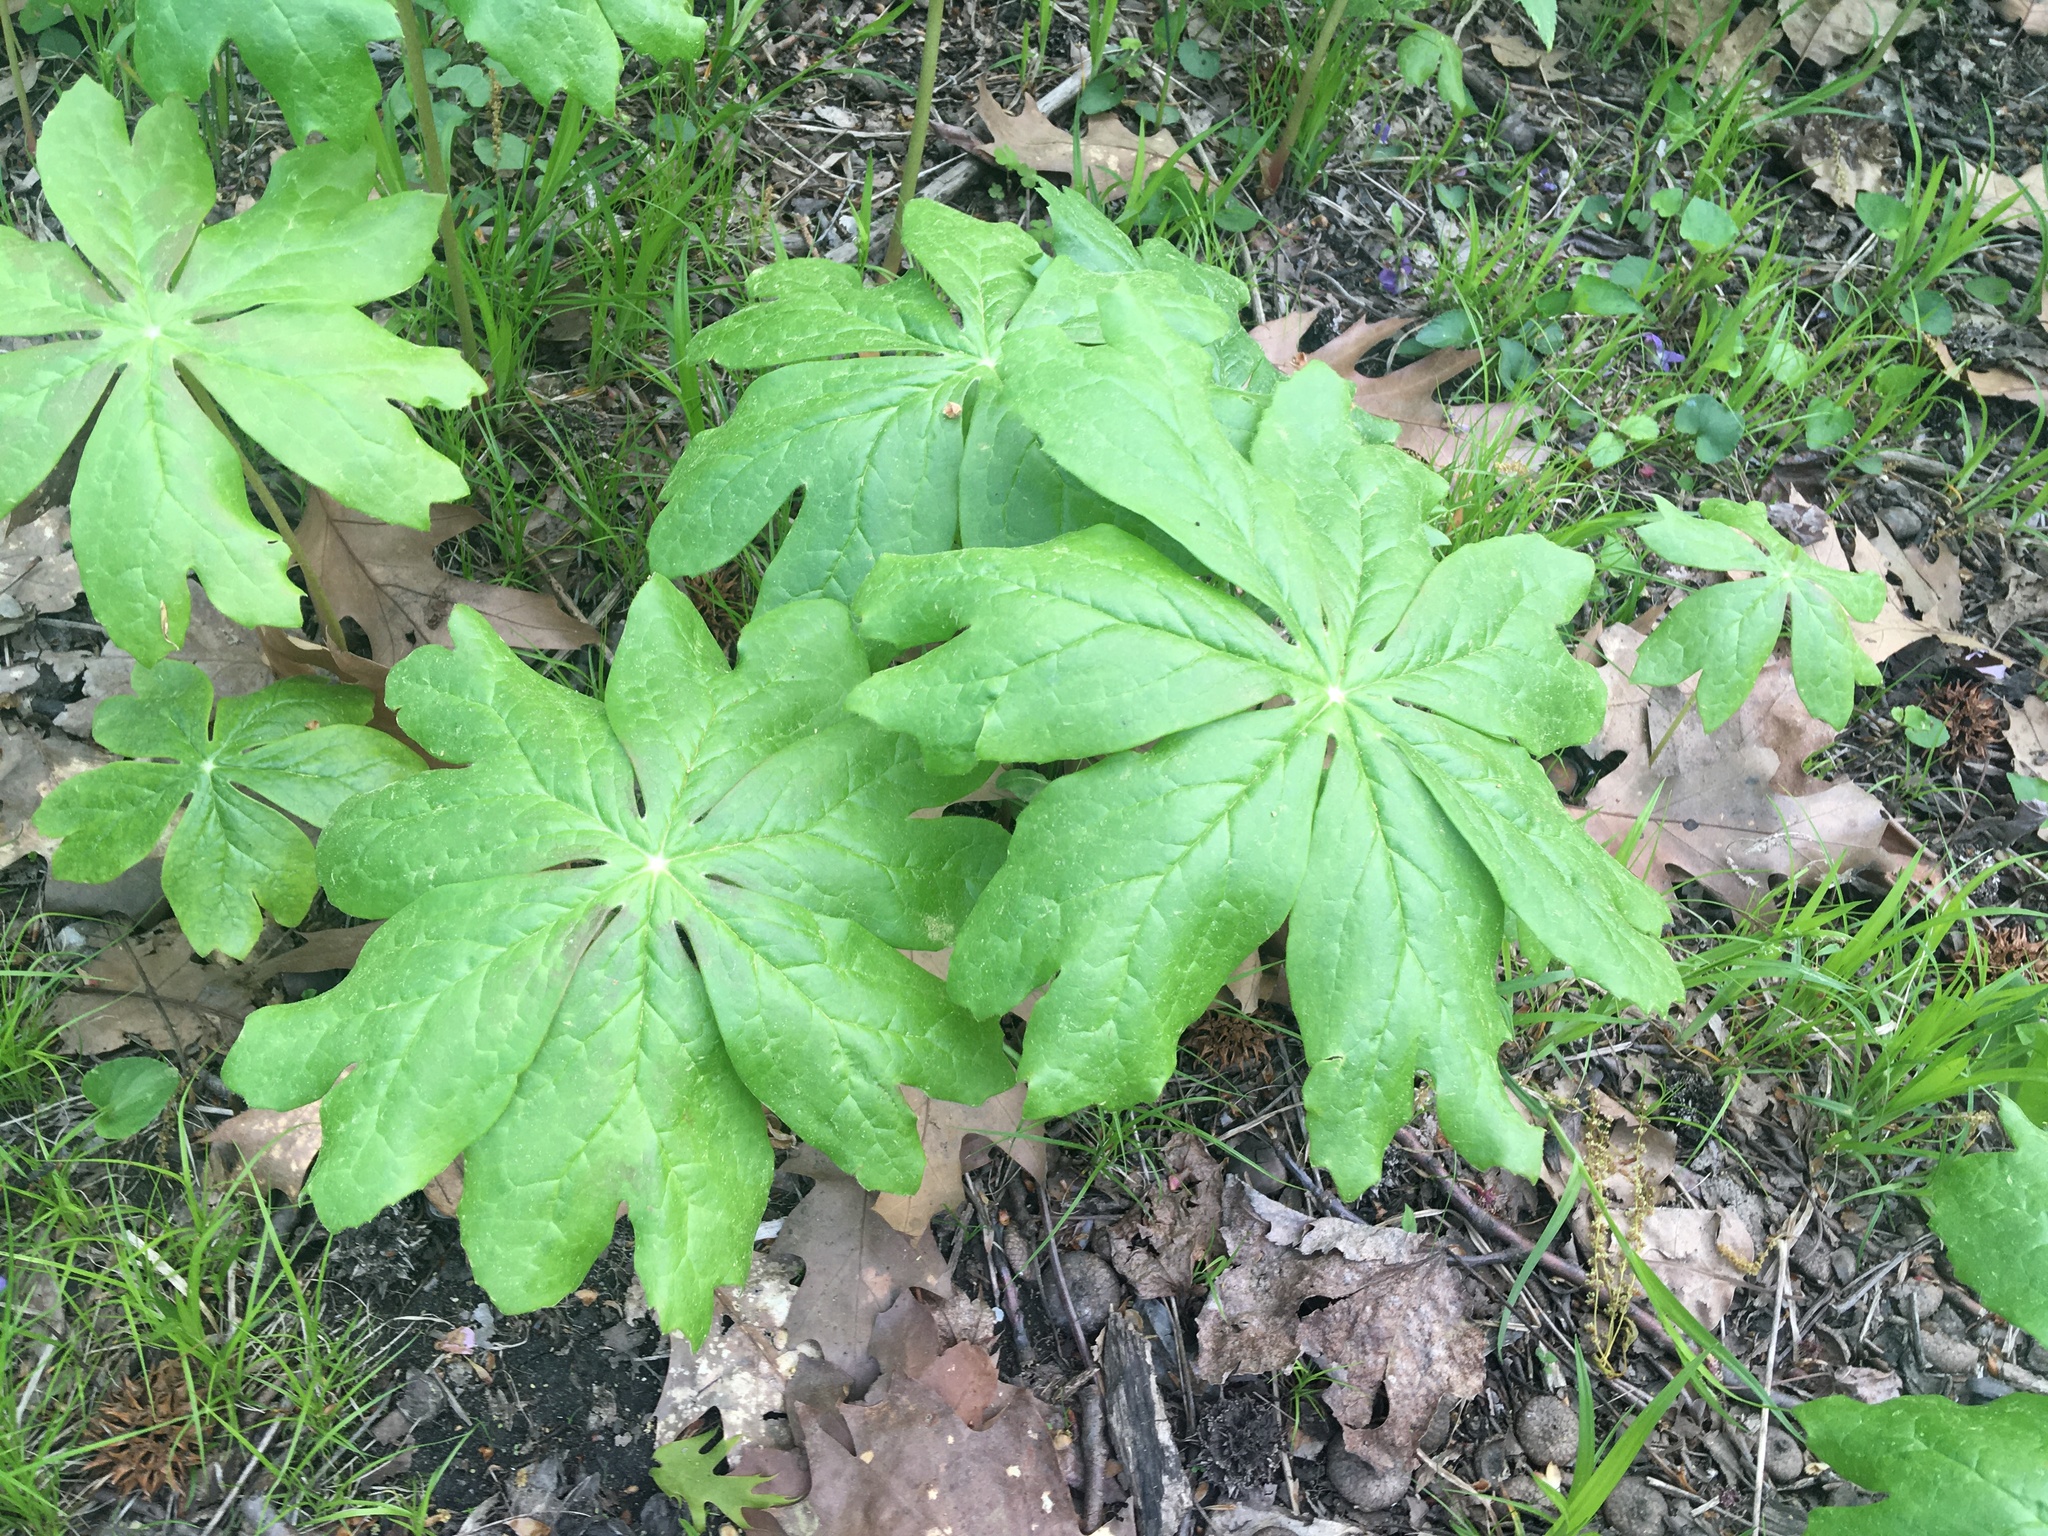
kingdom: Plantae
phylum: Tracheophyta
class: Magnoliopsida
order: Ranunculales
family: Berberidaceae
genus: Podophyllum
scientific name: Podophyllum peltatum
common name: Wild mandrake
